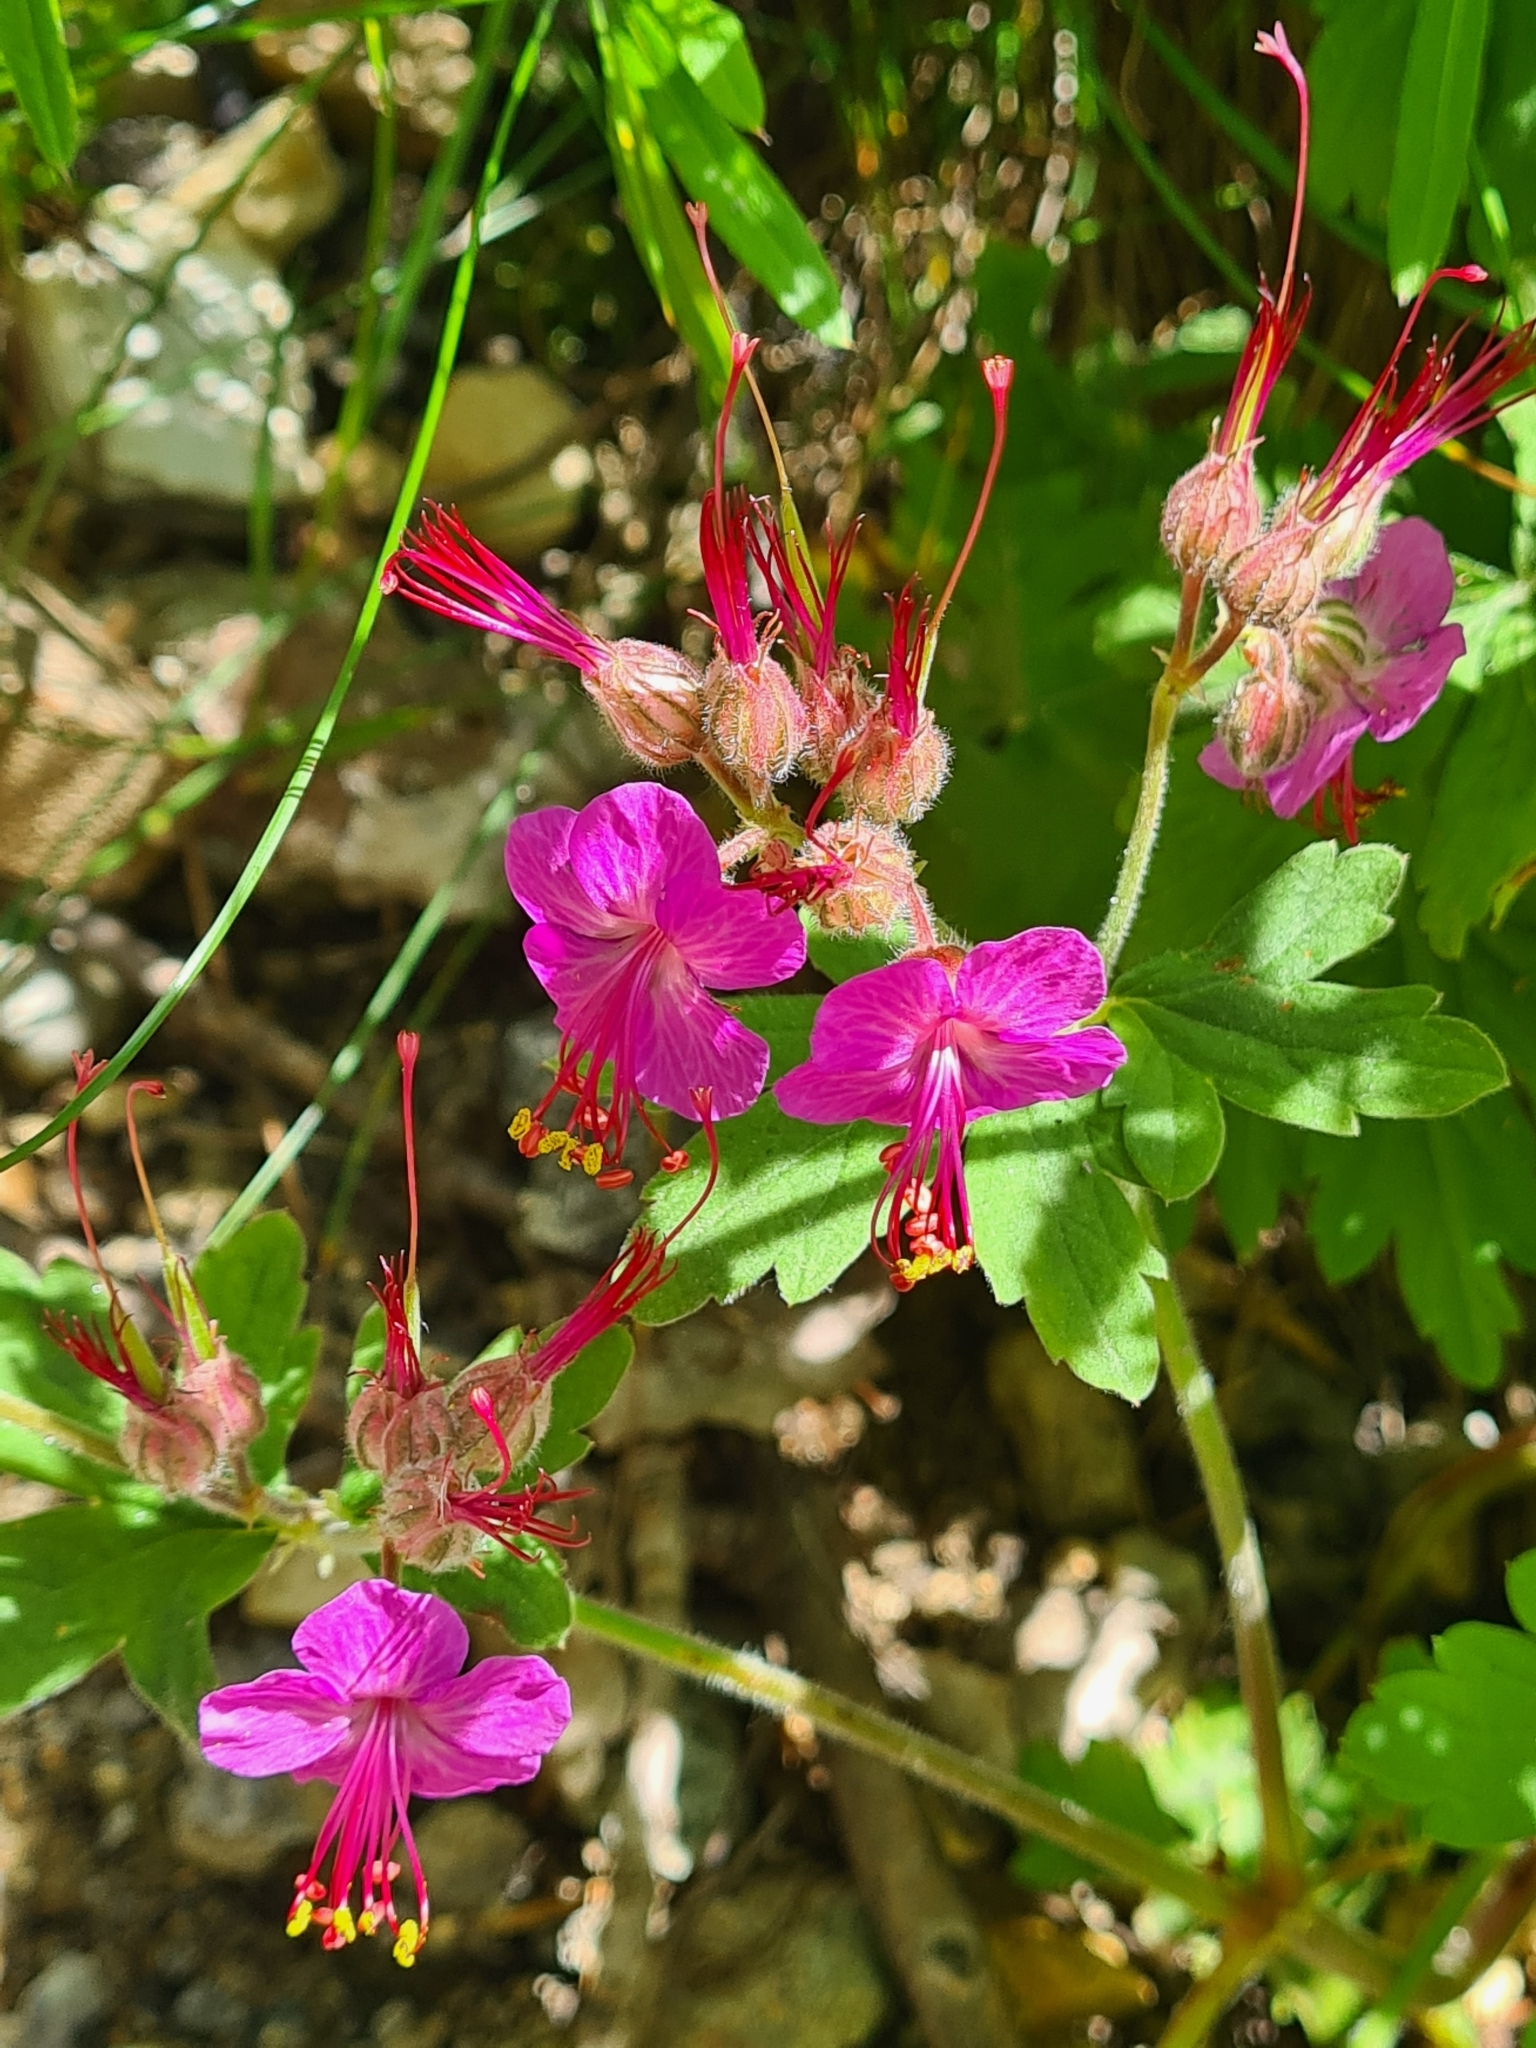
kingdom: Plantae
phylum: Tracheophyta
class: Magnoliopsida
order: Geraniales
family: Geraniaceae
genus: Geranium
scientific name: Geranium macrorrhizum
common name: Rock crane's-bill
